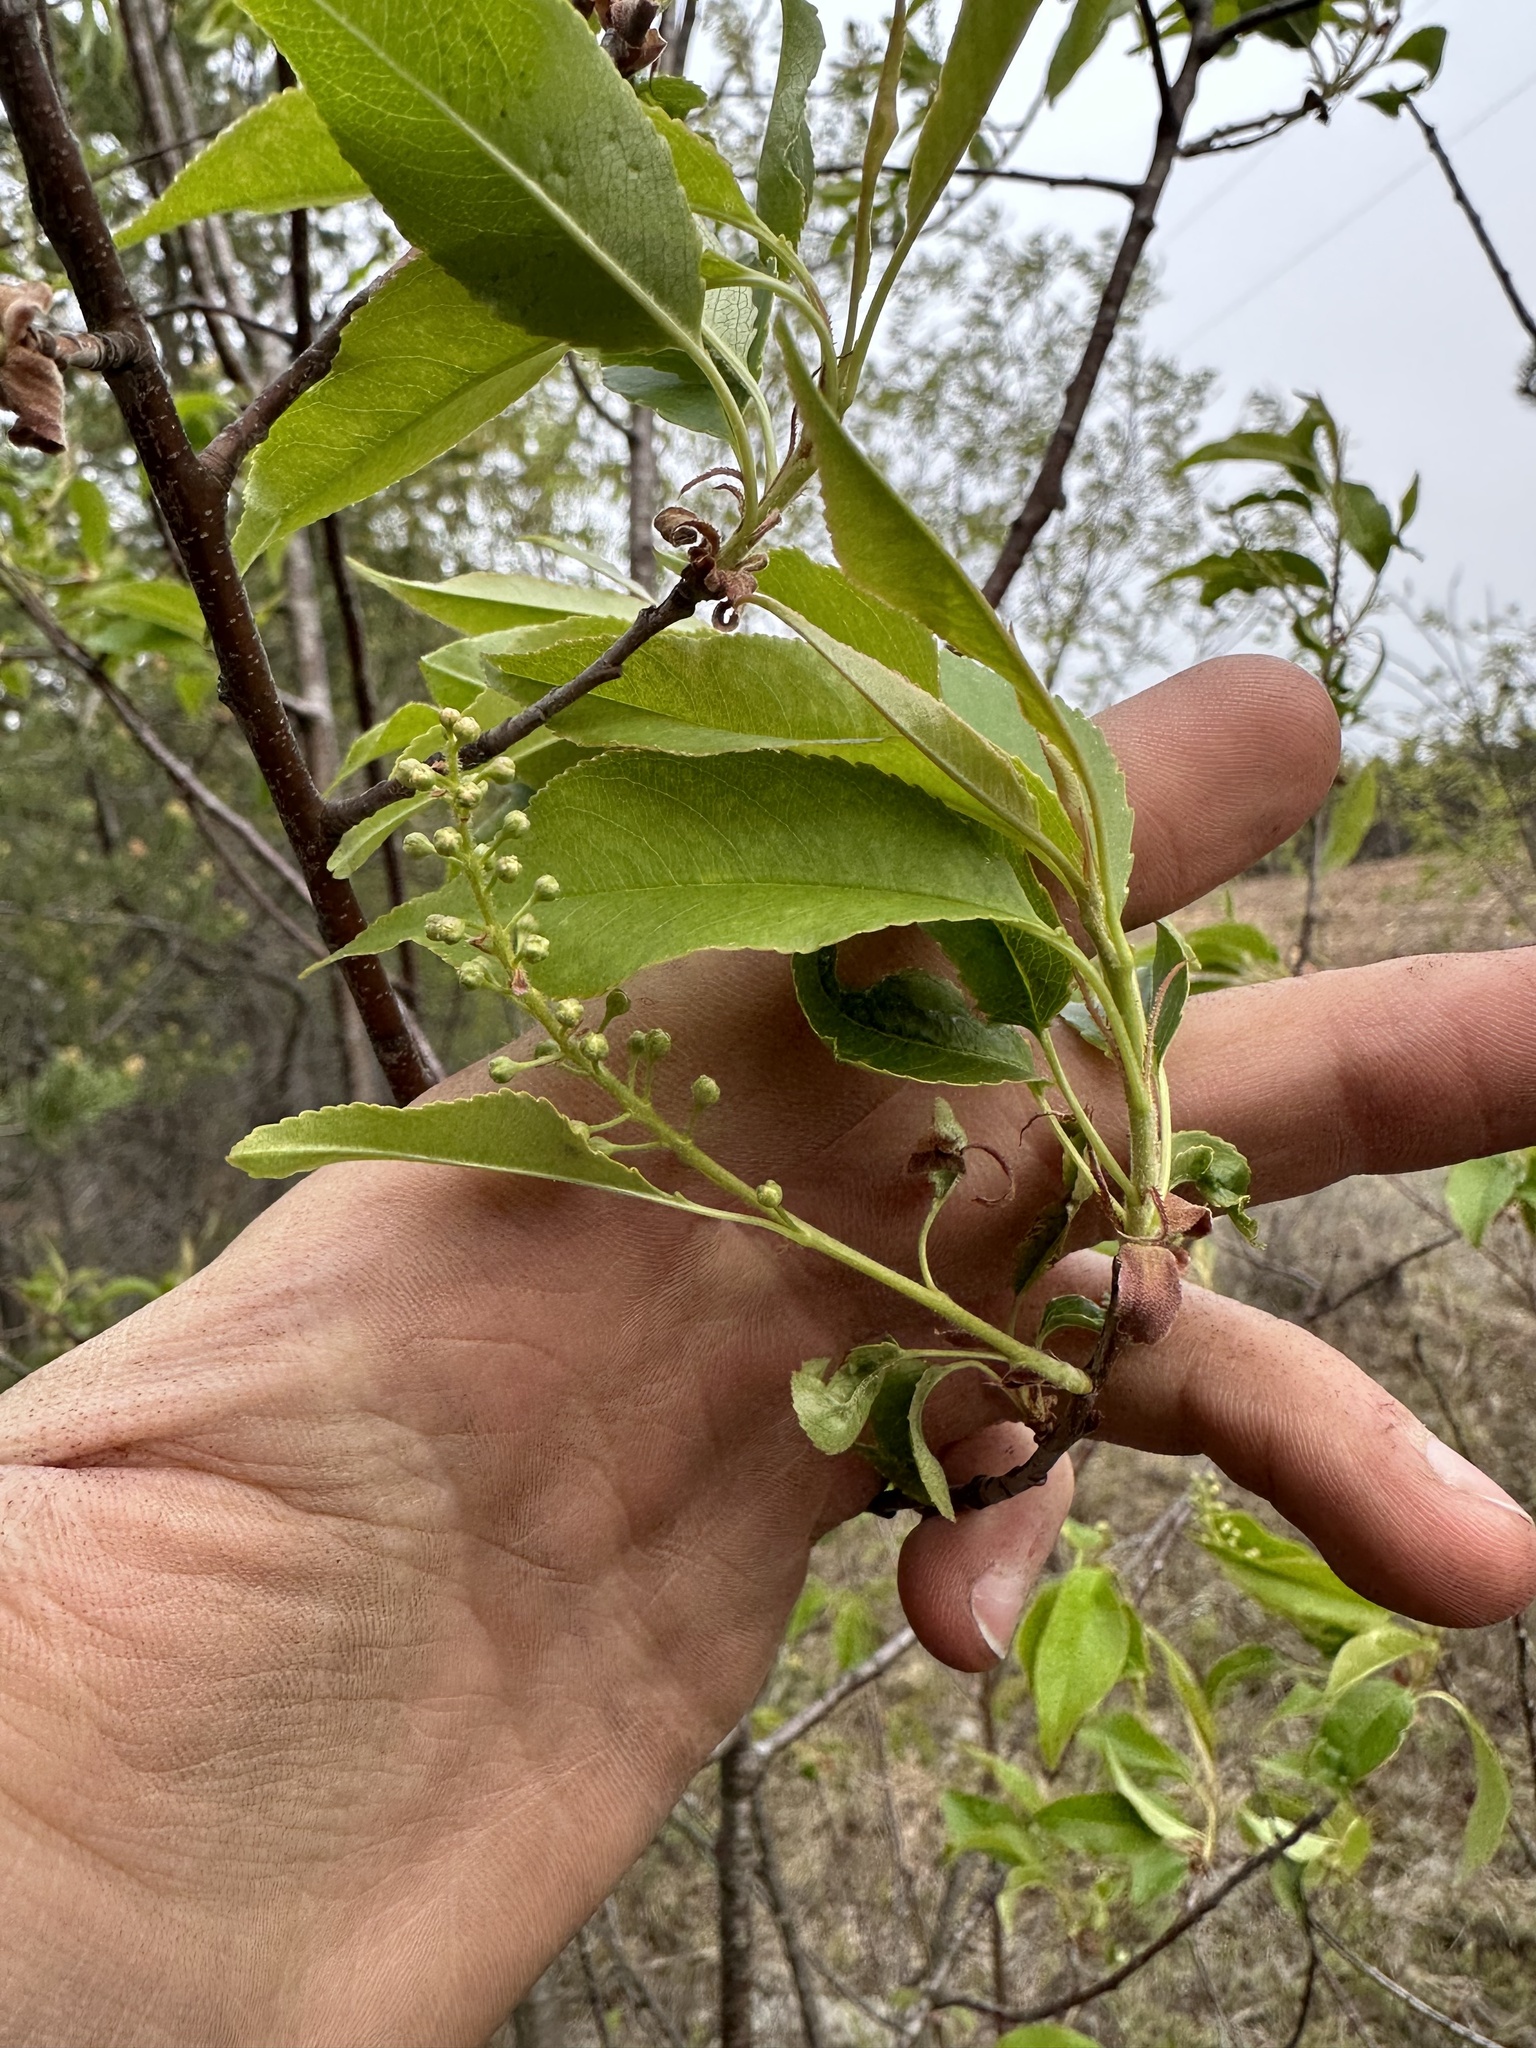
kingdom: Plantae
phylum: Tracheophyta
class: Magnoliopsida
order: Rosales
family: Rosaceae
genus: Prunus
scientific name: Prunus serotina
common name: Black cherry
